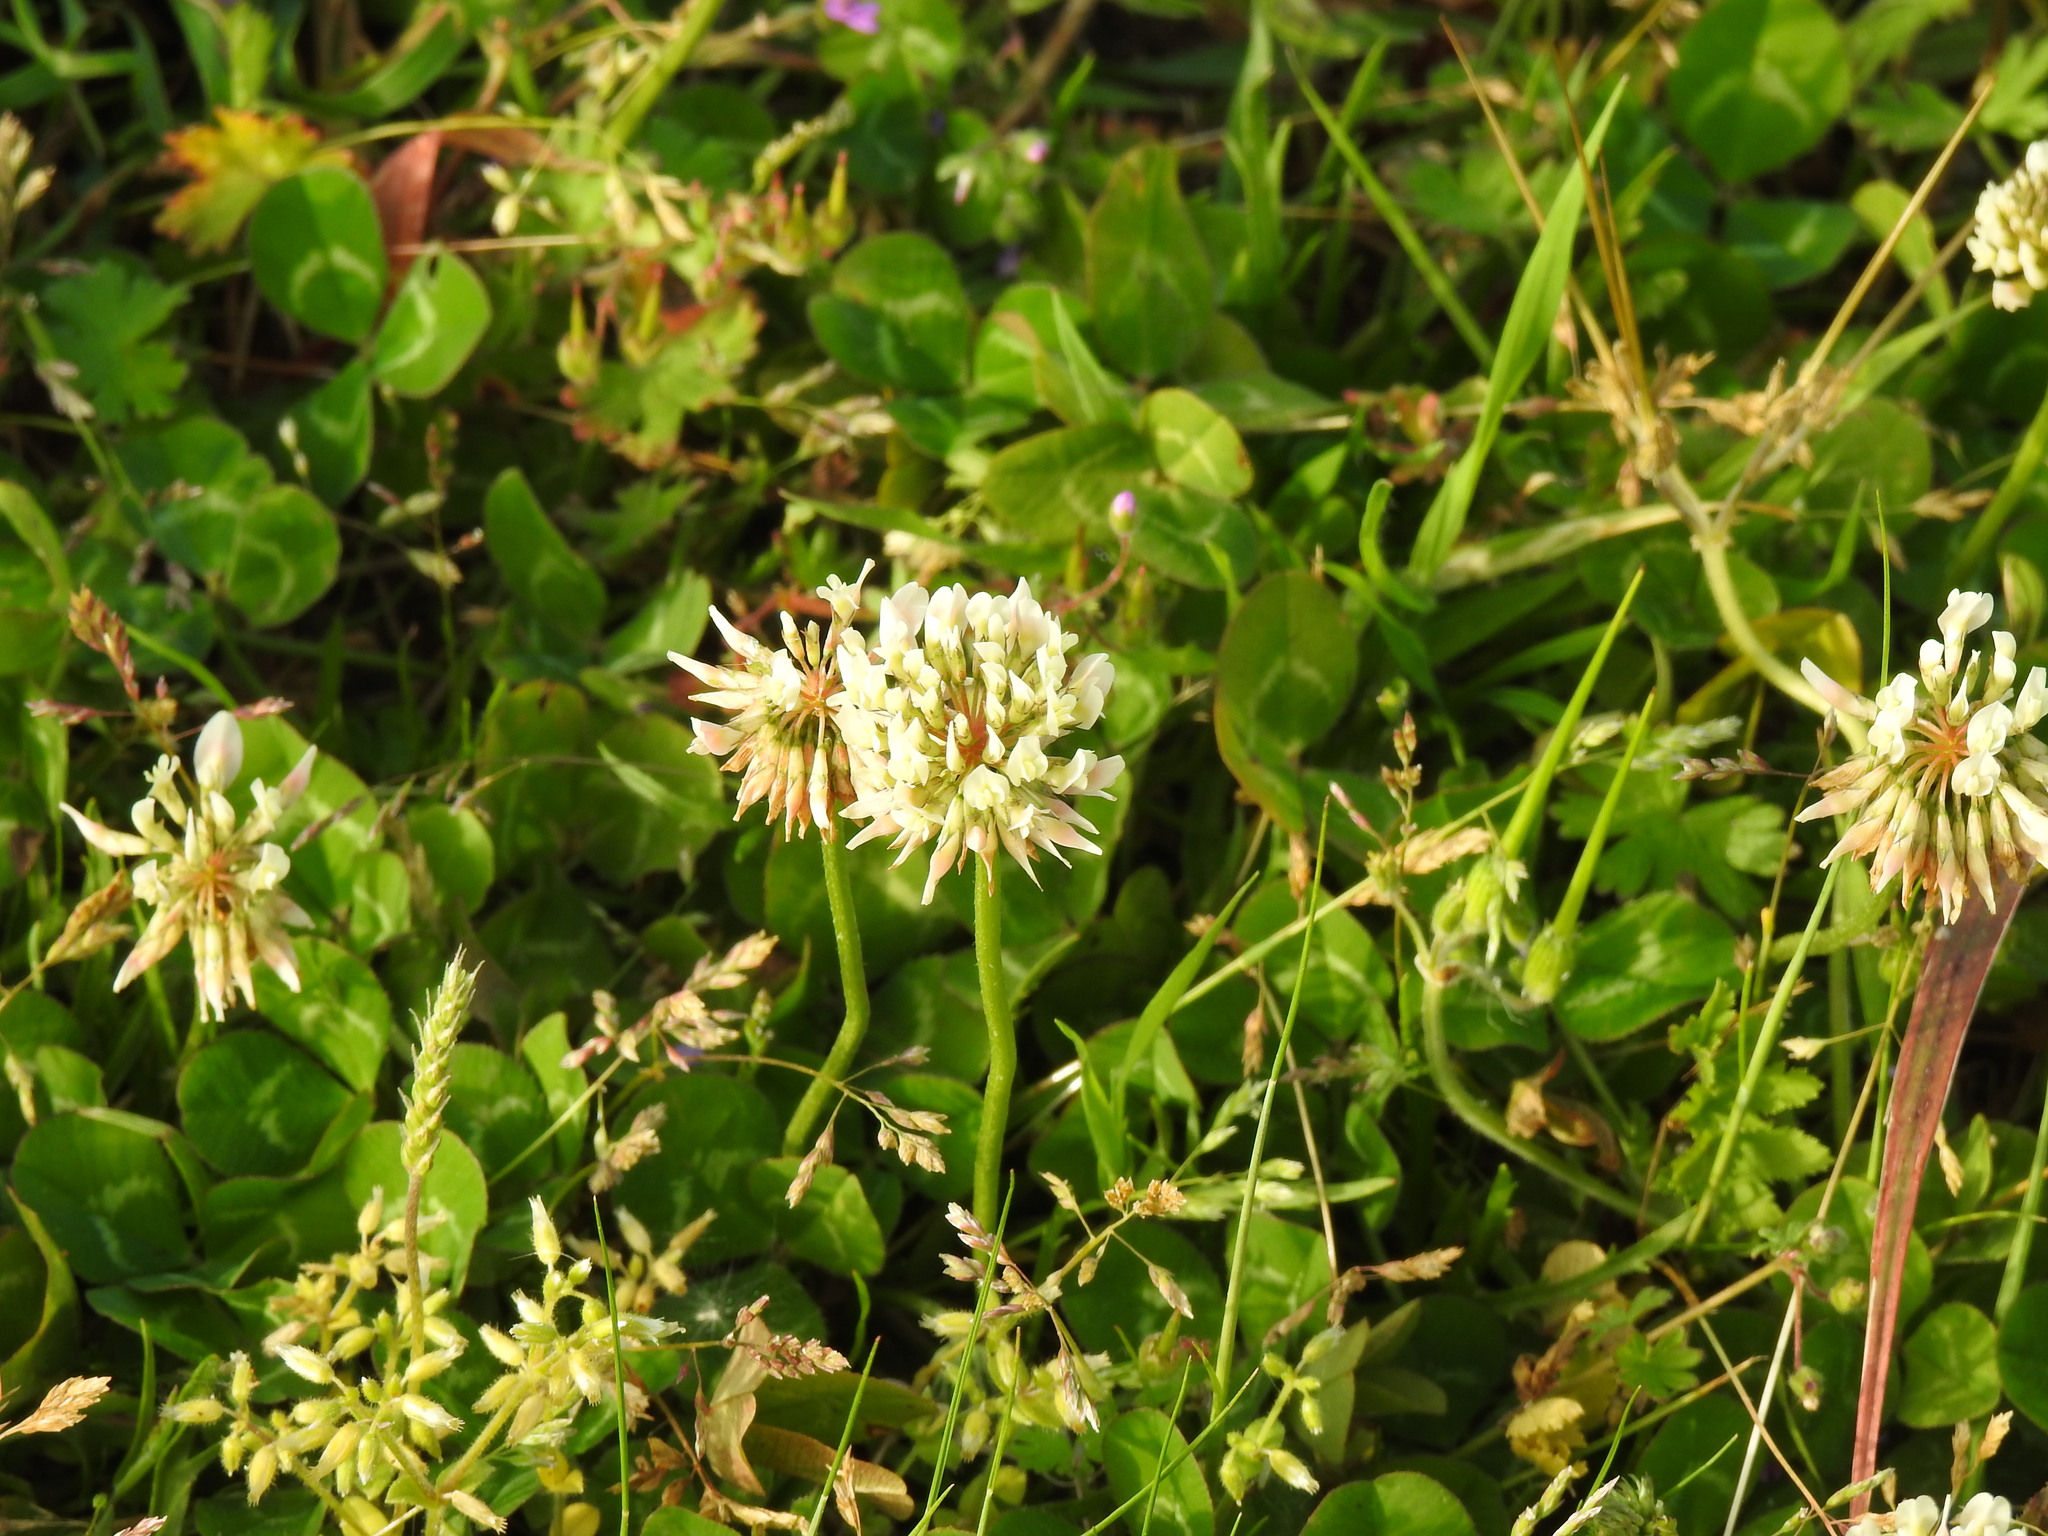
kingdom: Plantae
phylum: Tracheophyta
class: Magnoliopsida
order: Fabales
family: Fabaceae
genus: Trifolium
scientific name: Trifolium repens
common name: White clover
